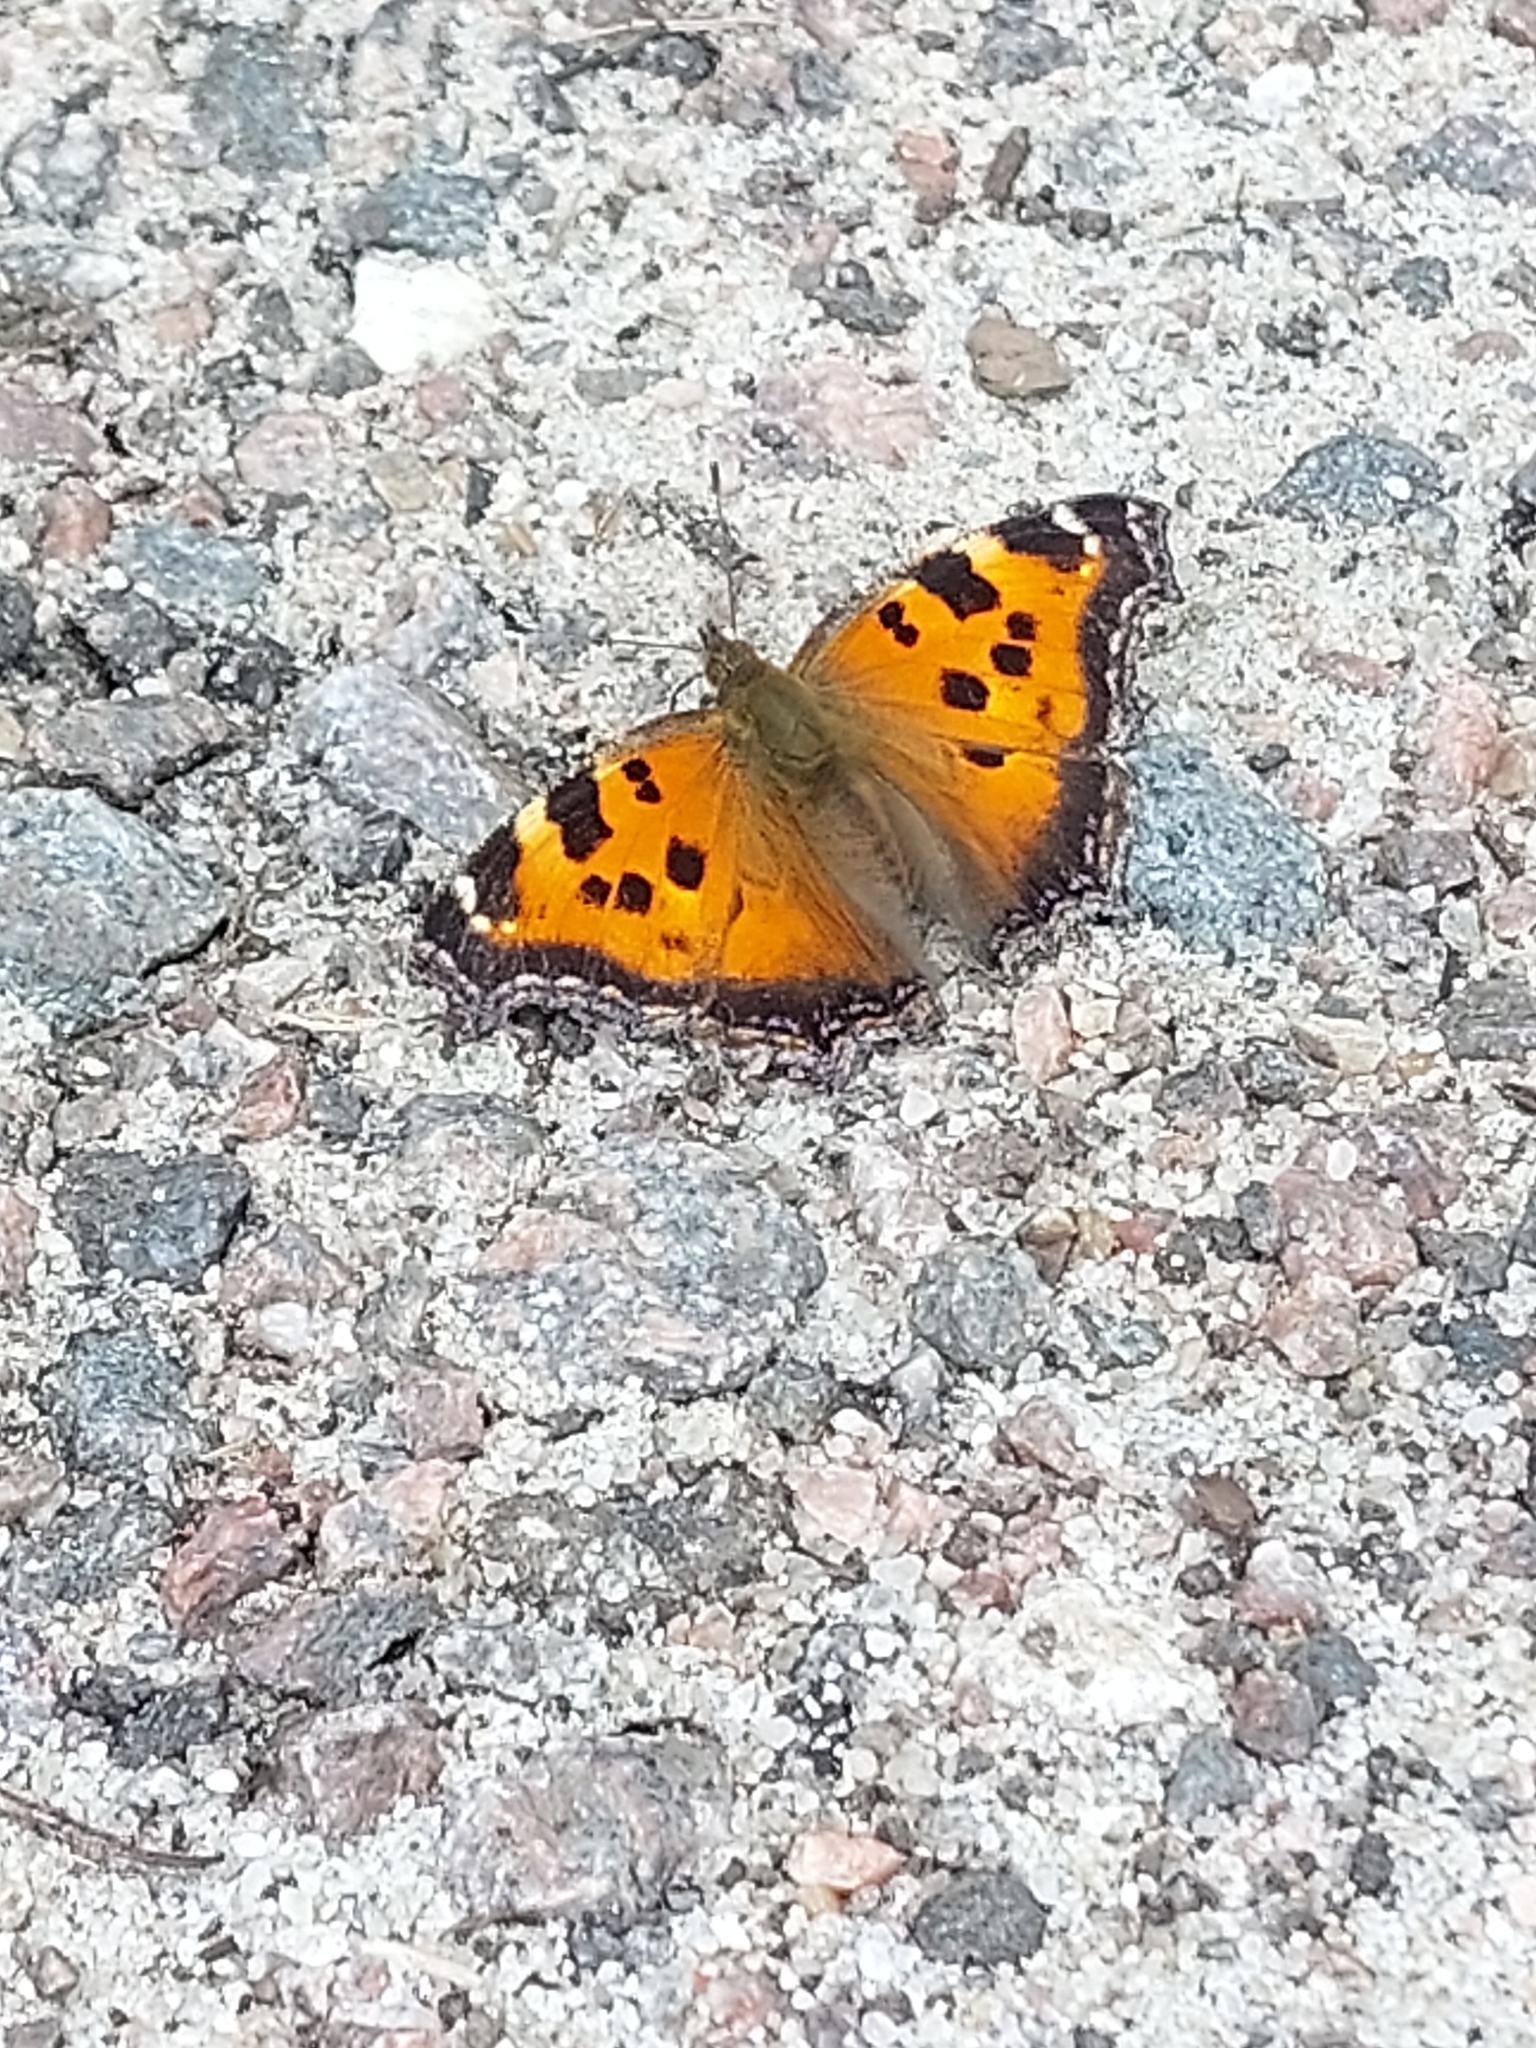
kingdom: Animalia
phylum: Arthropoda
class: Insecta
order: Lepidoptera
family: Nymphalidae
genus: Nymphalis
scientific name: Nymphalis xanthomelas
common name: Scarce tortoiseshell
